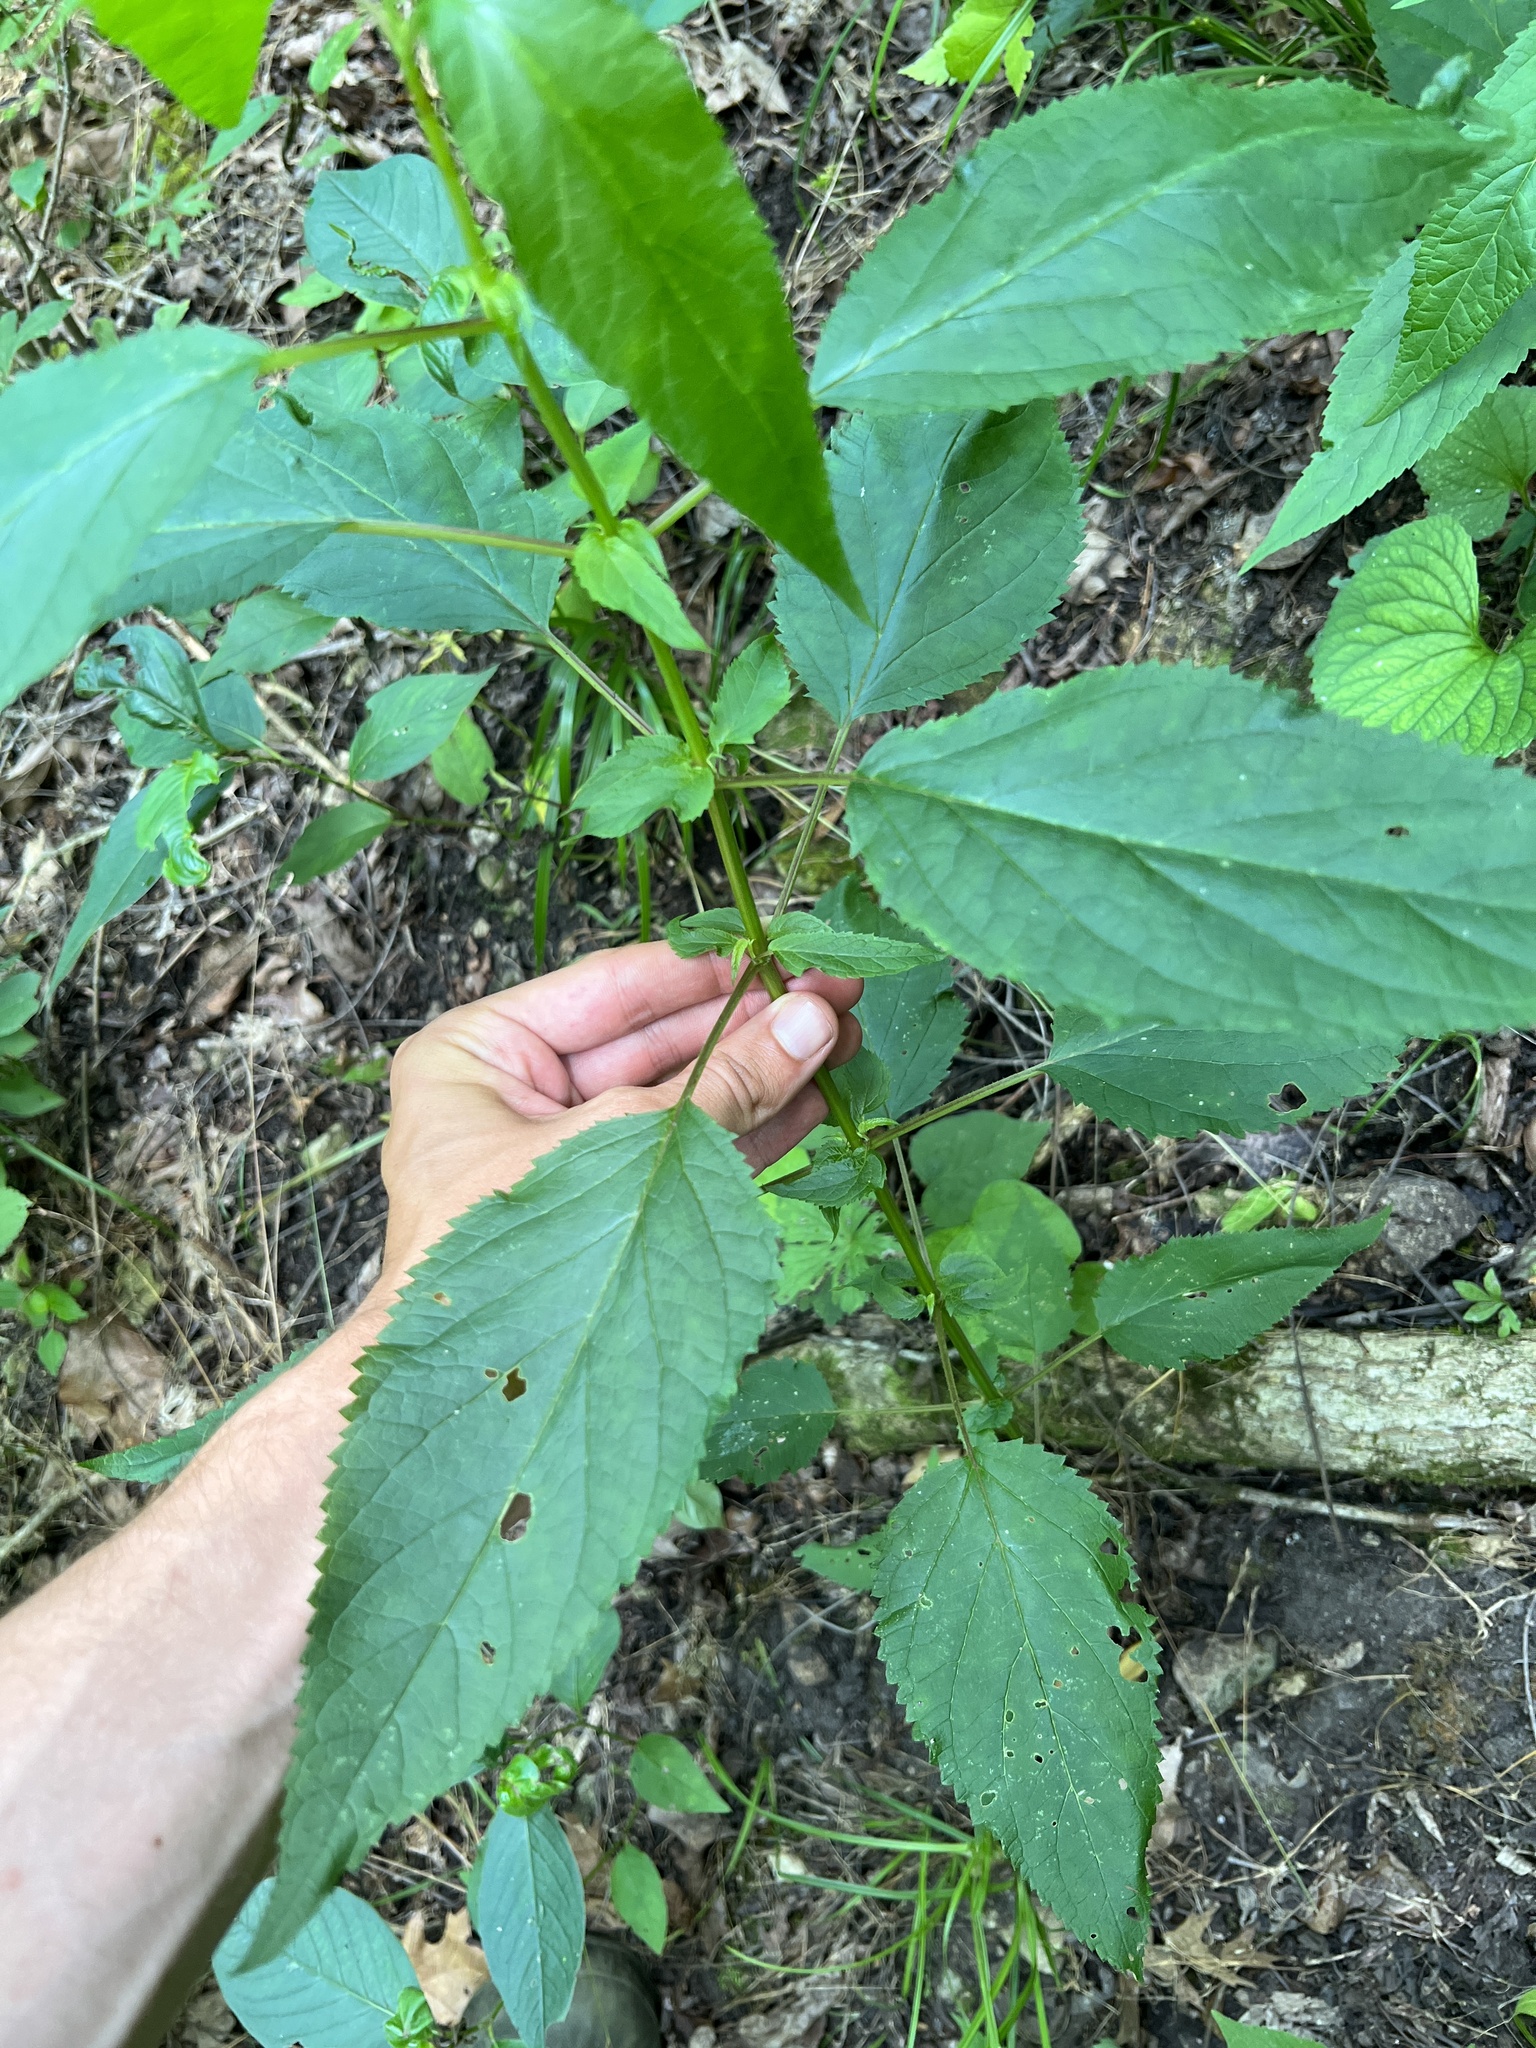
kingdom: Plantae
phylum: Tracheophyta
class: Magnoliopsida
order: Lamiales
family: Scrophulariaceae
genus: Scrophularia
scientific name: Scrophularia marilandica
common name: Eastern figwort
